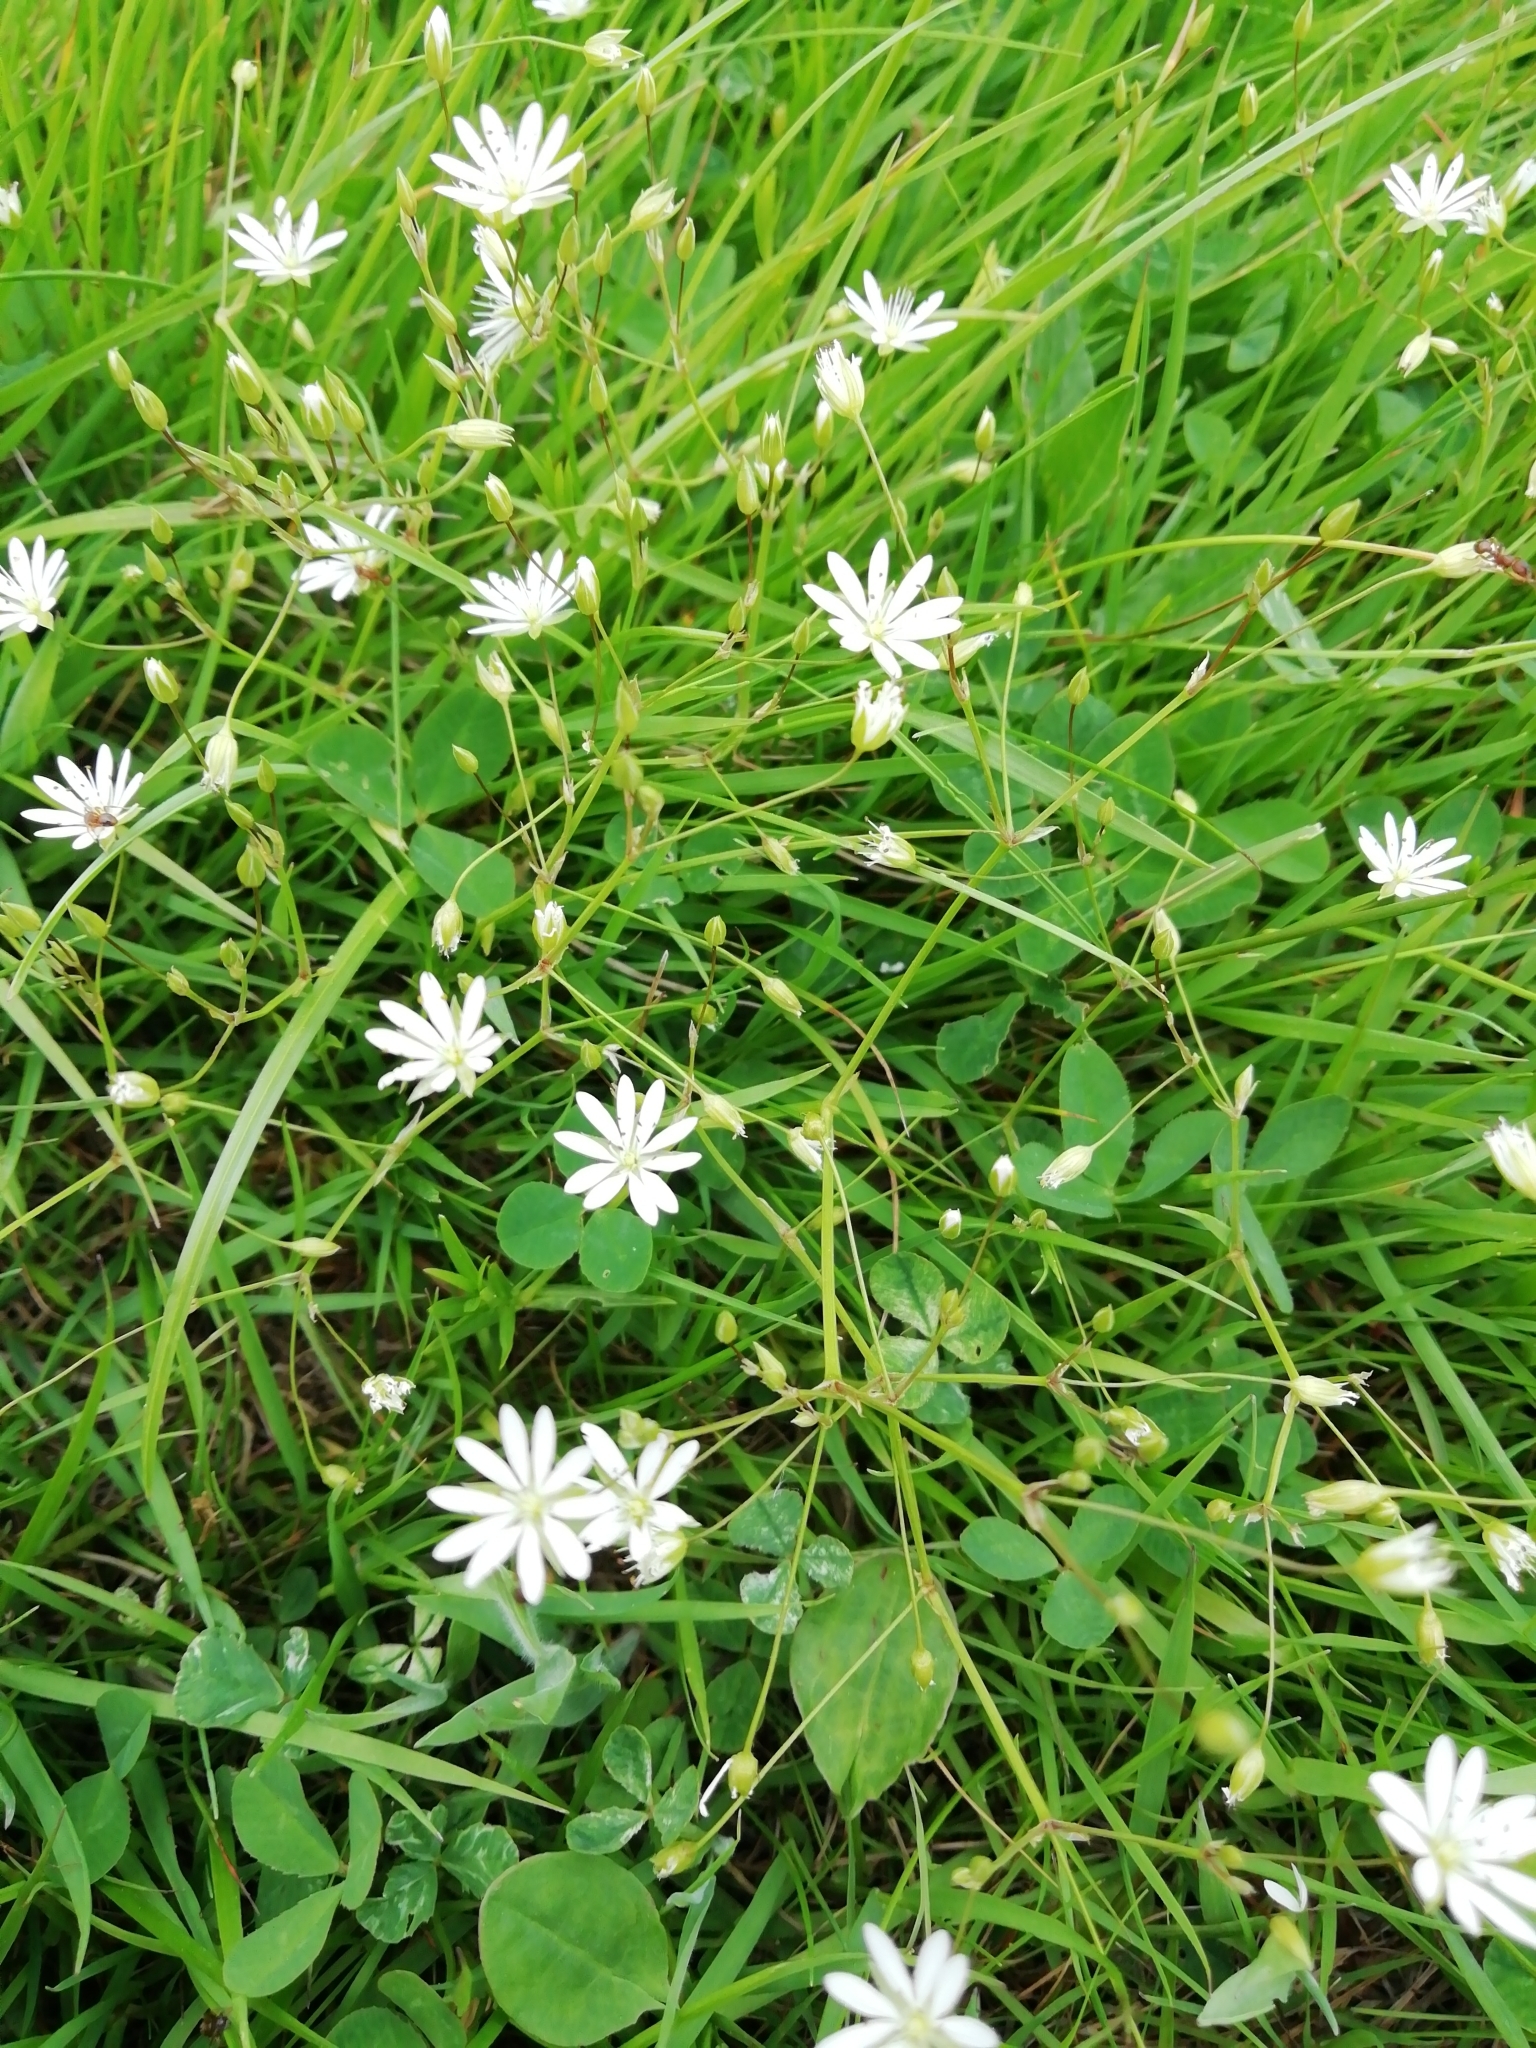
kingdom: Plantae
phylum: Tracheophyta
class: Magnoliopsida
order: Caryophyllales
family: Caryophyllaceae
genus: Stellaria
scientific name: Stellaria graminea
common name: Grass-like starwort
